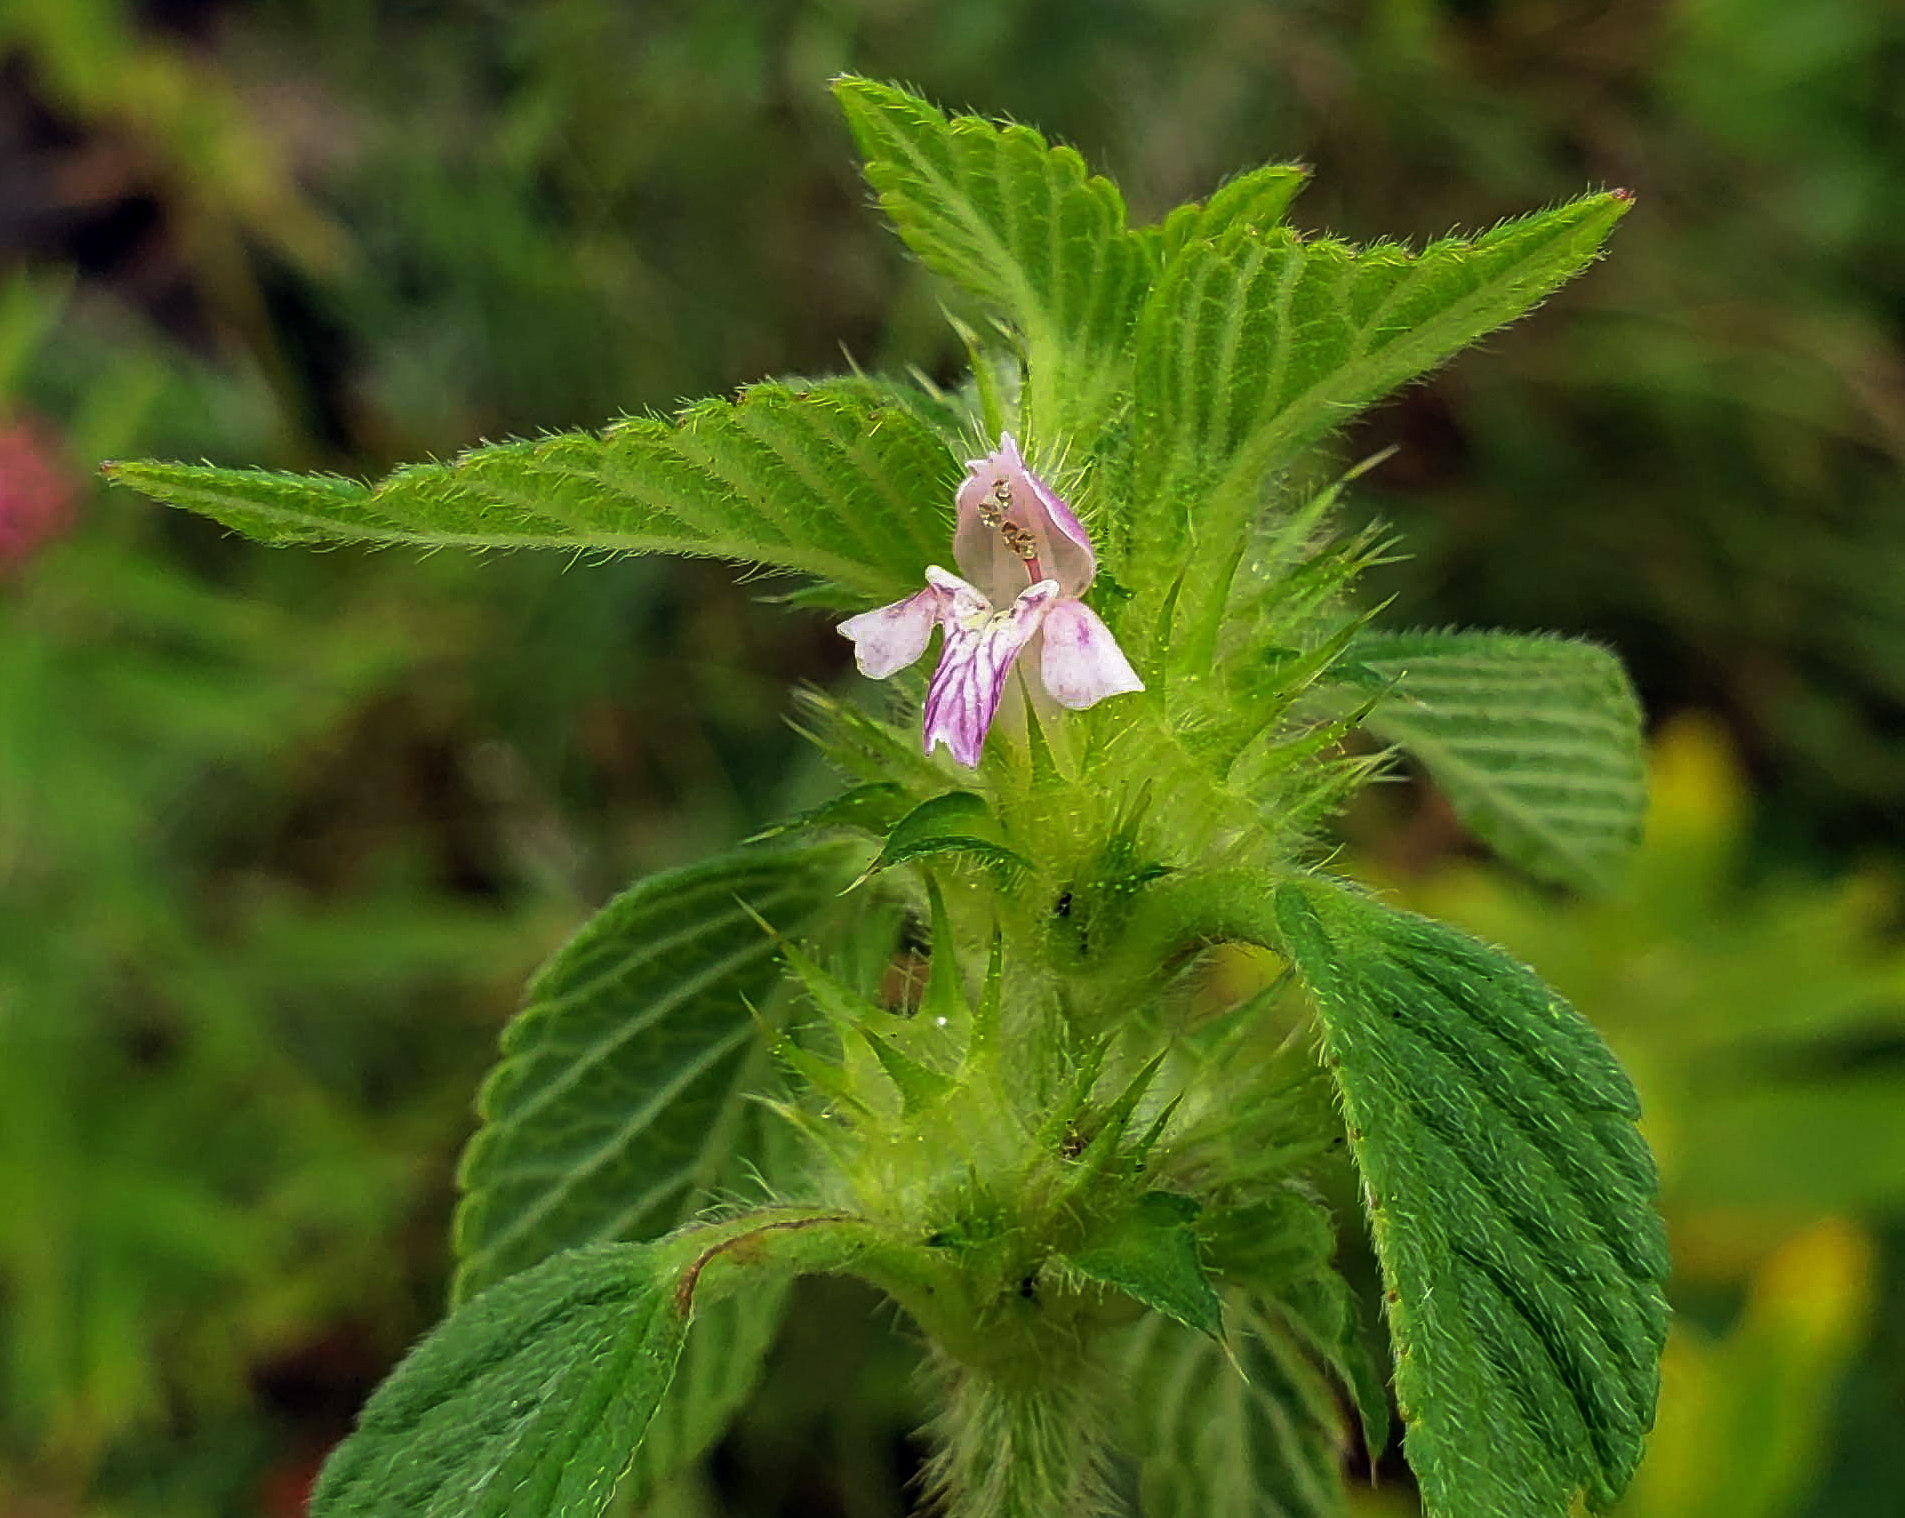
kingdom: Plantae
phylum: Tracheophyta
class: Magnoliopsida
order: Lamiales
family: Lamiaceae
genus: Galeopsis
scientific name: Galeopsis bifida
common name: Bifid hemp-nettle
